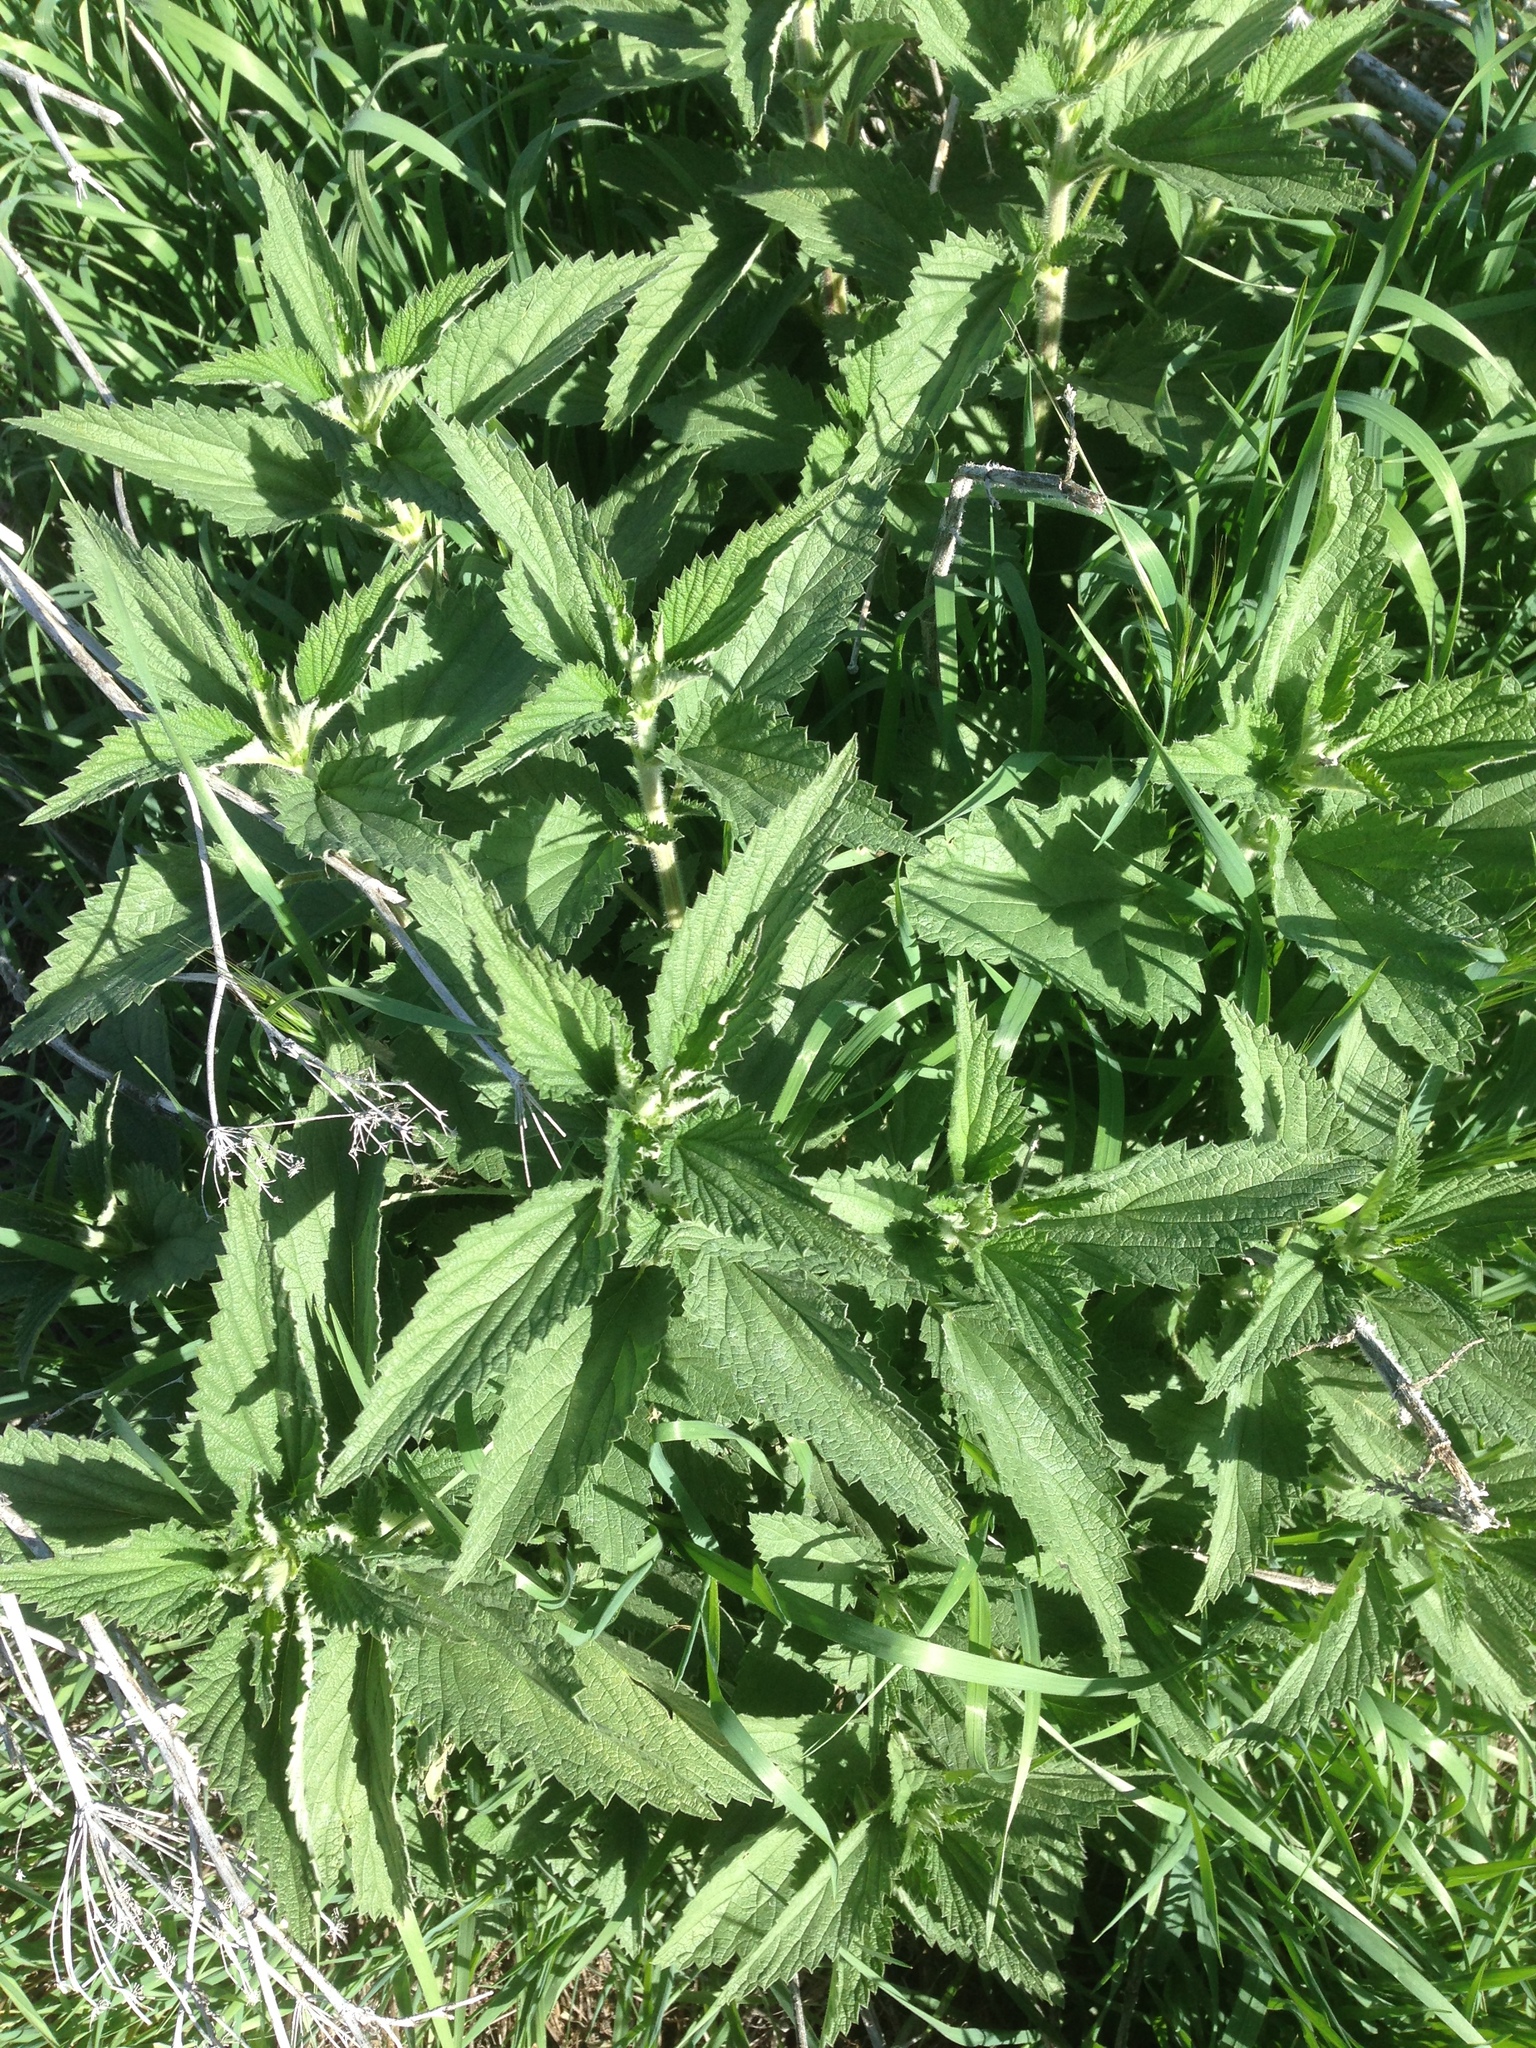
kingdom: Plantae
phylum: Tracheophyta
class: Magnoliopsida
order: Rosales
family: Urticaceae
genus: Urtica
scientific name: Urtica dioica
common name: Common nettle
